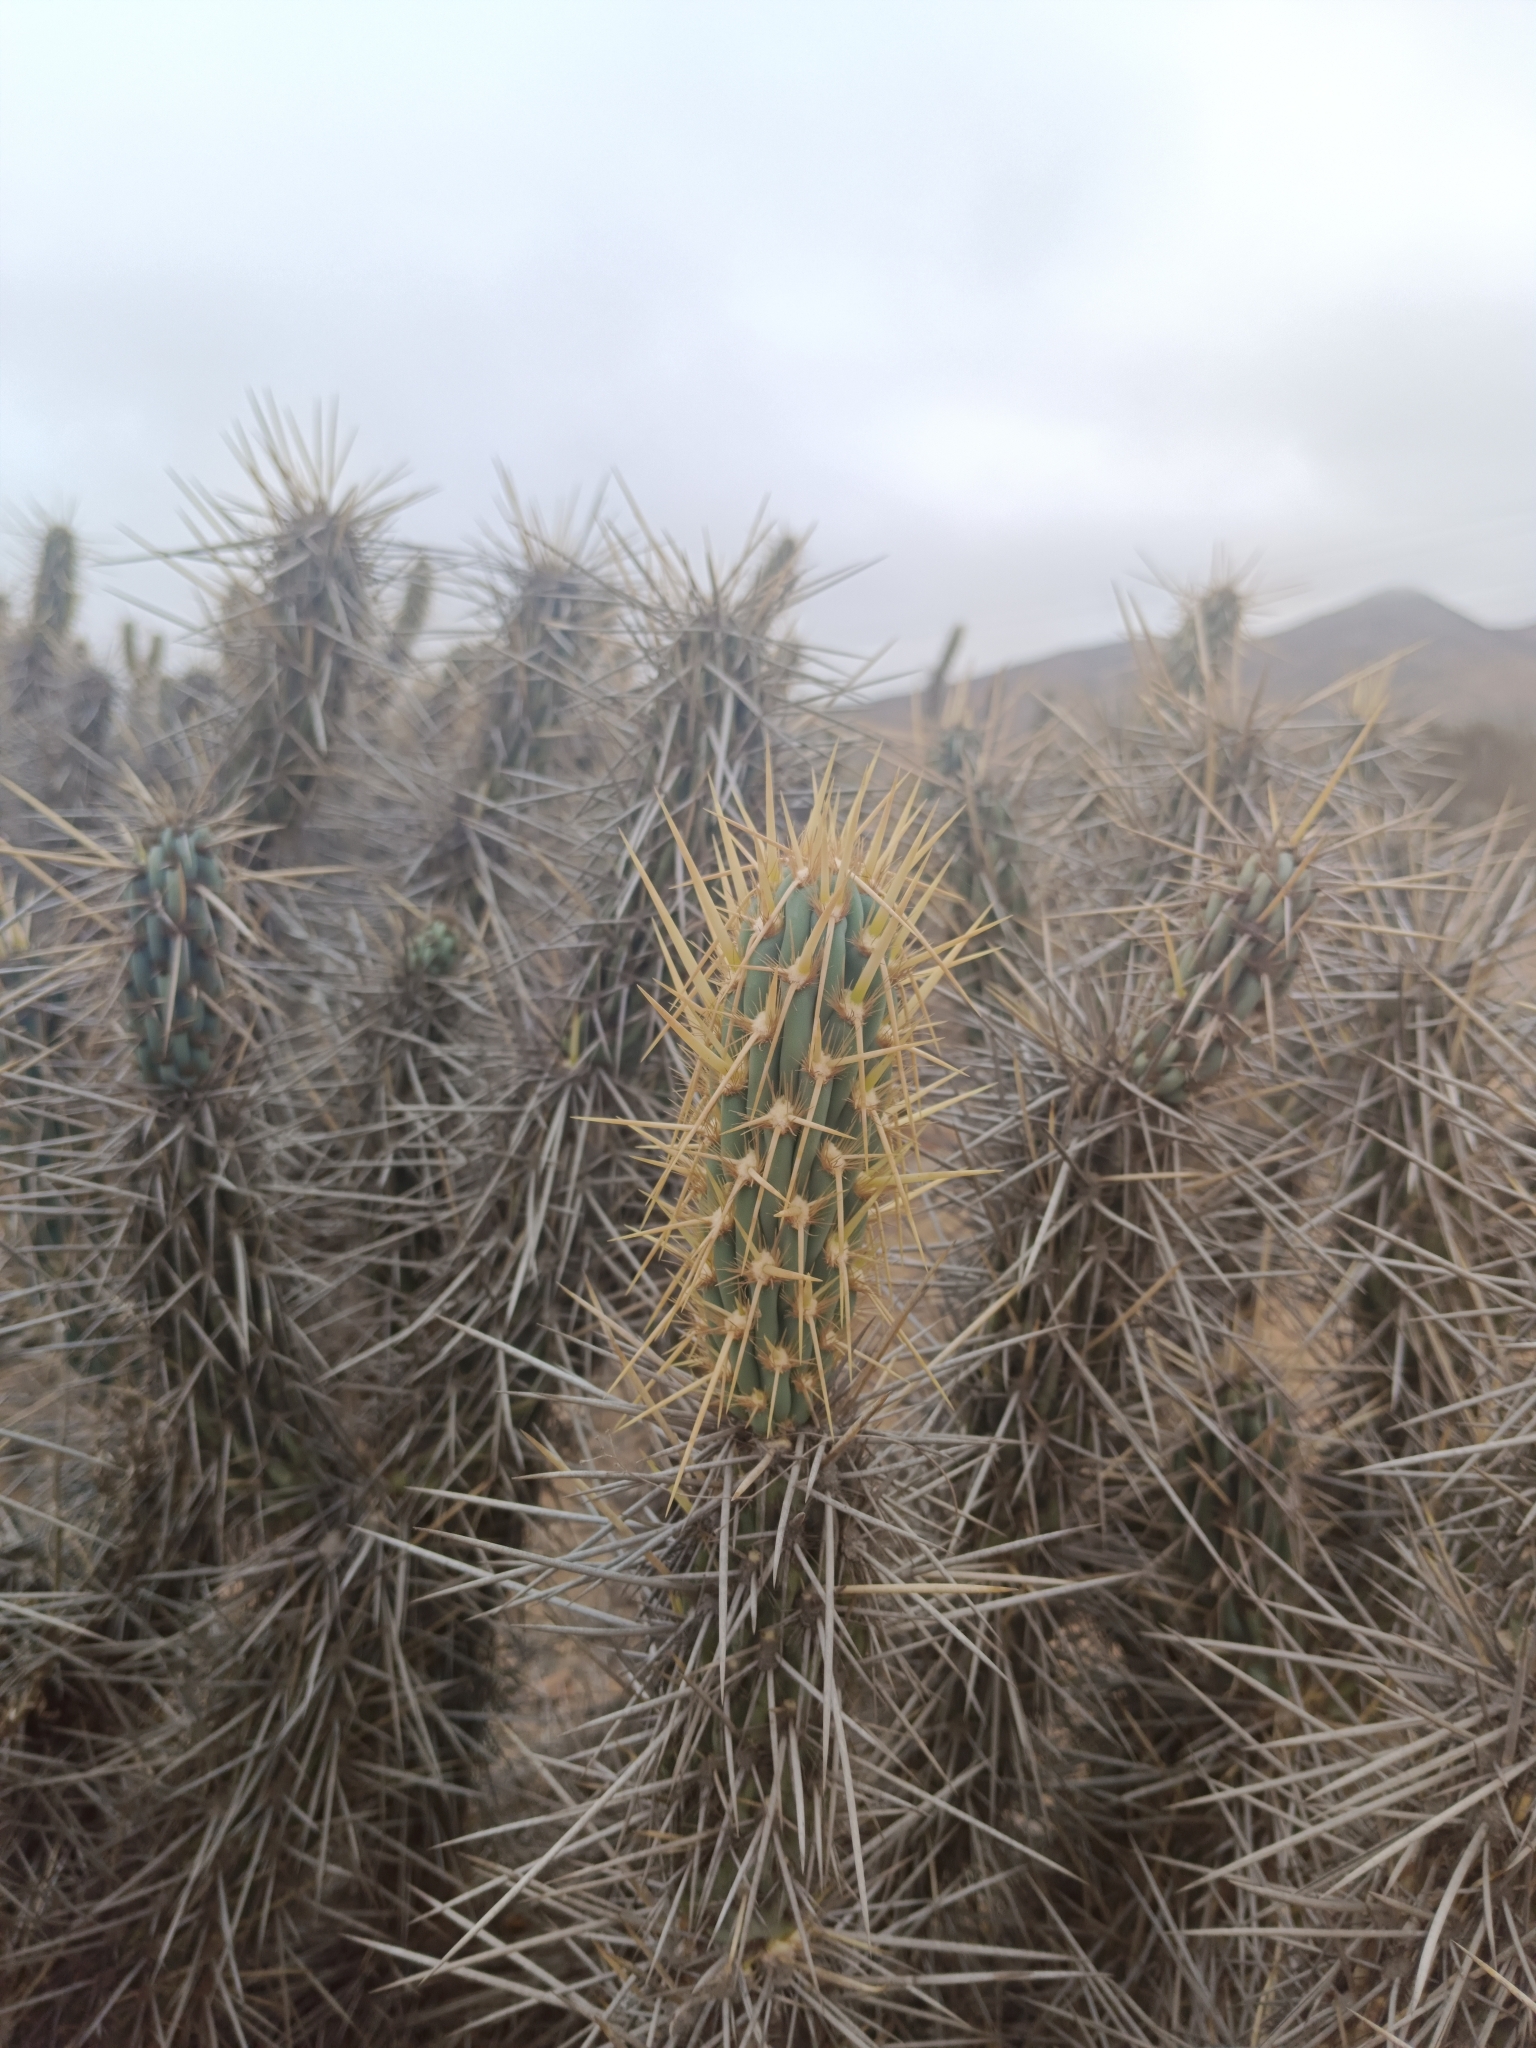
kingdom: Plantae
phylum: Tracheophyta
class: Magnoliopsida
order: Caryophyllales
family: Cactaceae
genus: Miqueliopuntia
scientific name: Miqueliopuntia miquelii
